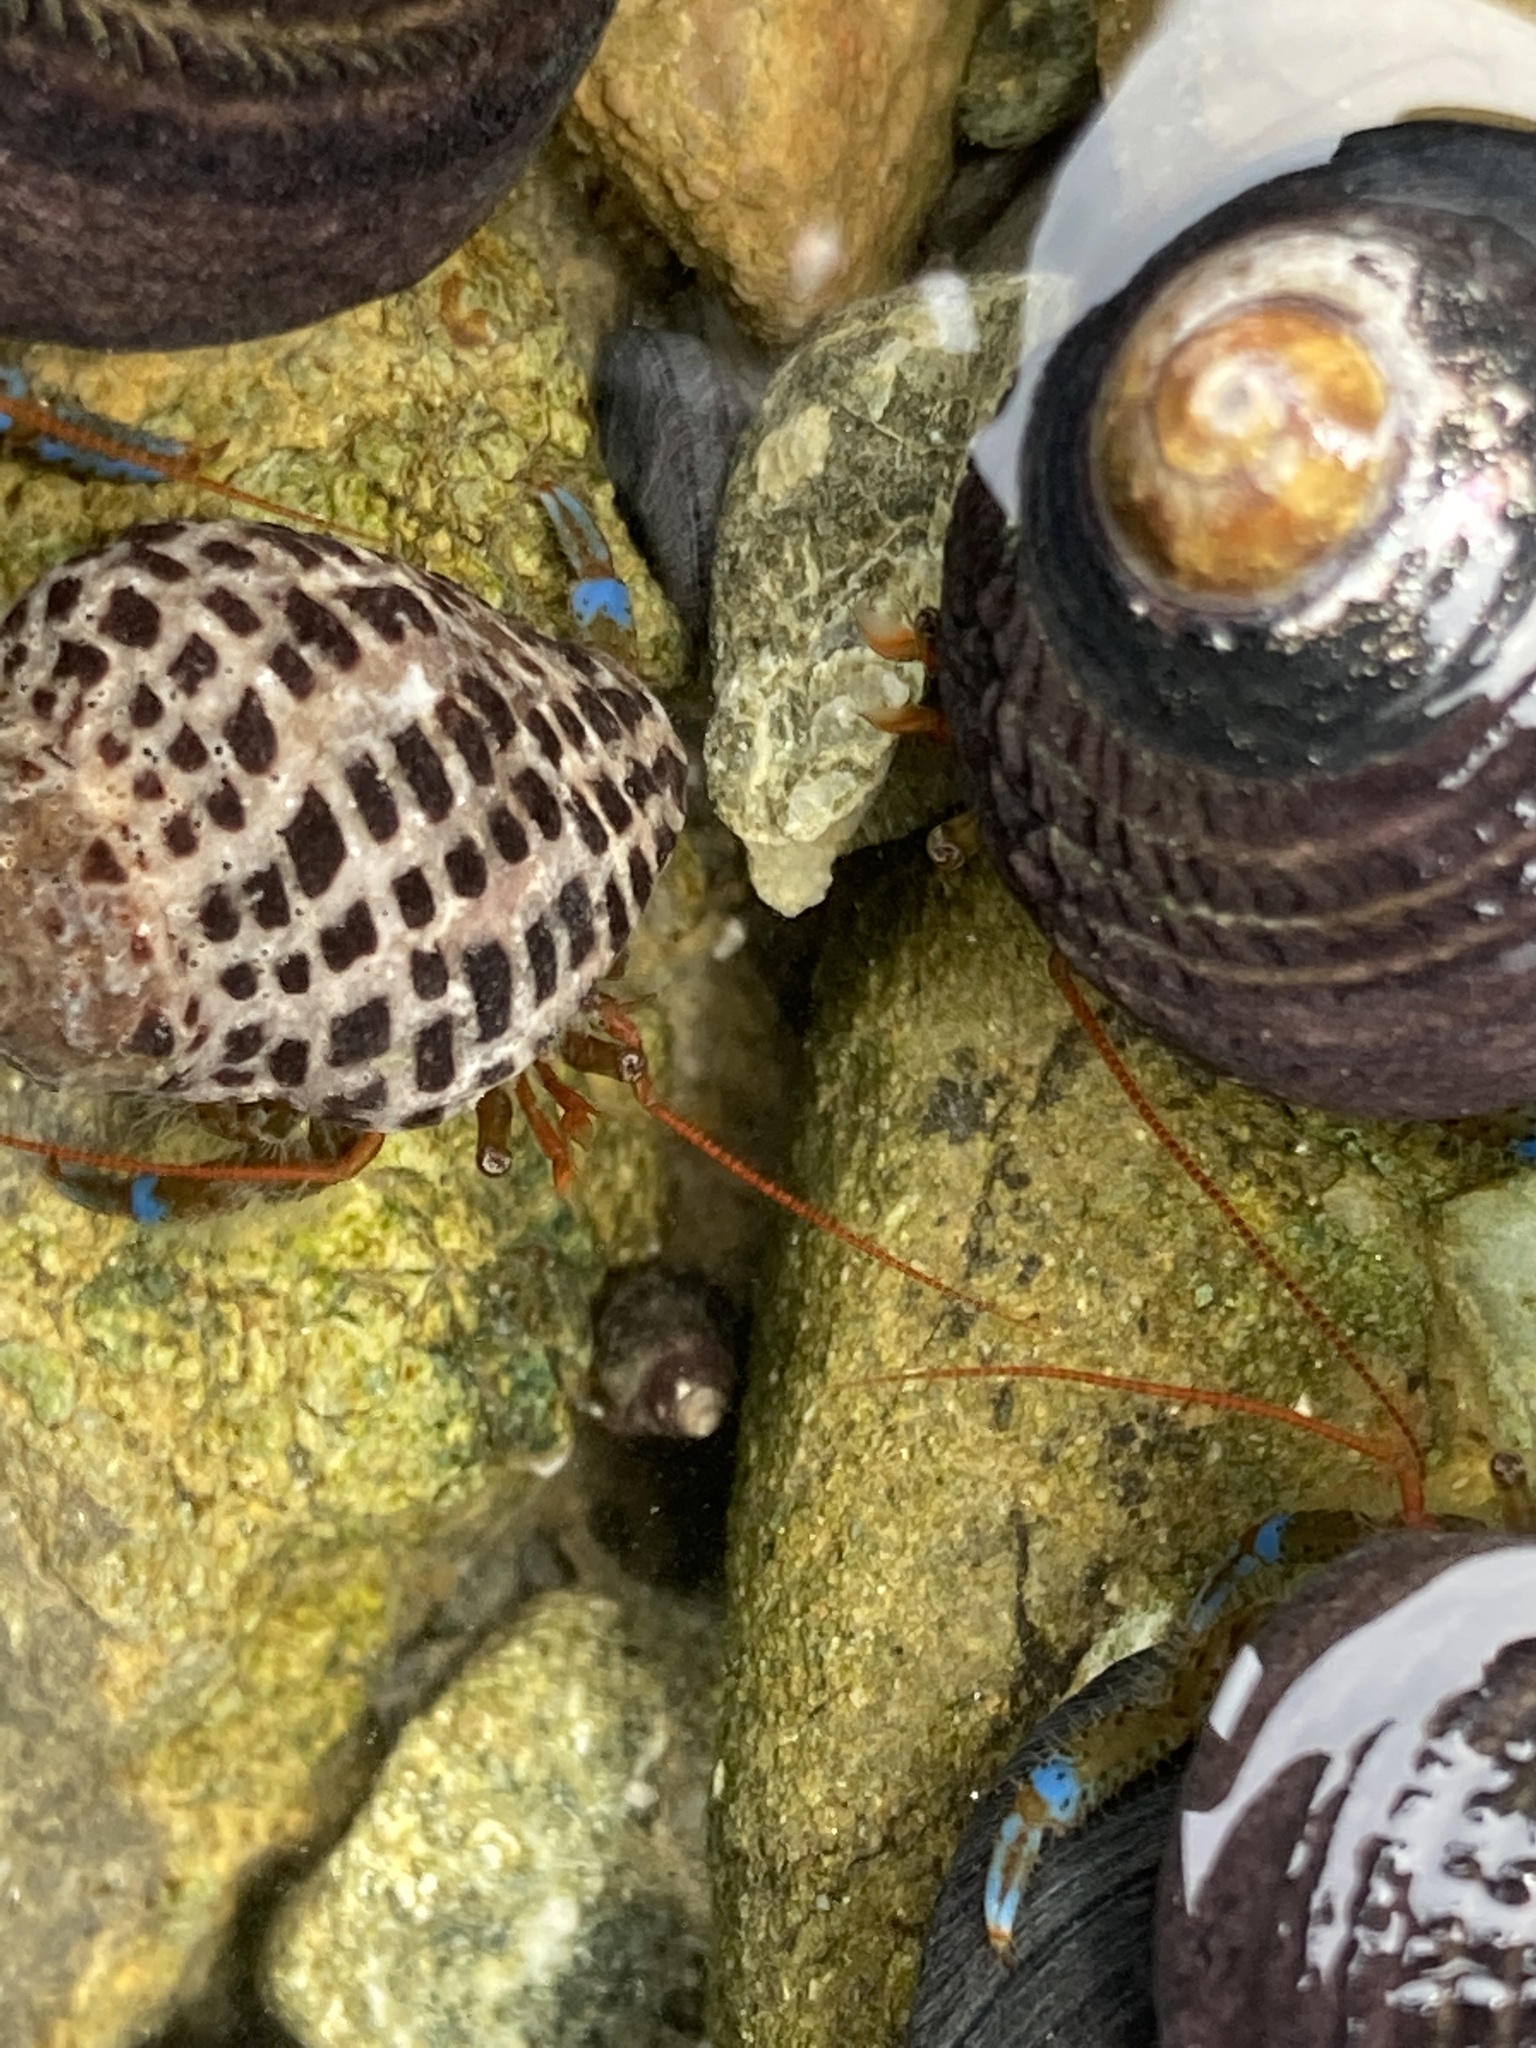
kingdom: Animalia
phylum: Arthropoda
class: Malacostraca
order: Decapoda
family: Paguridae
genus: Pagurus
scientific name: Pagurus samuelis
